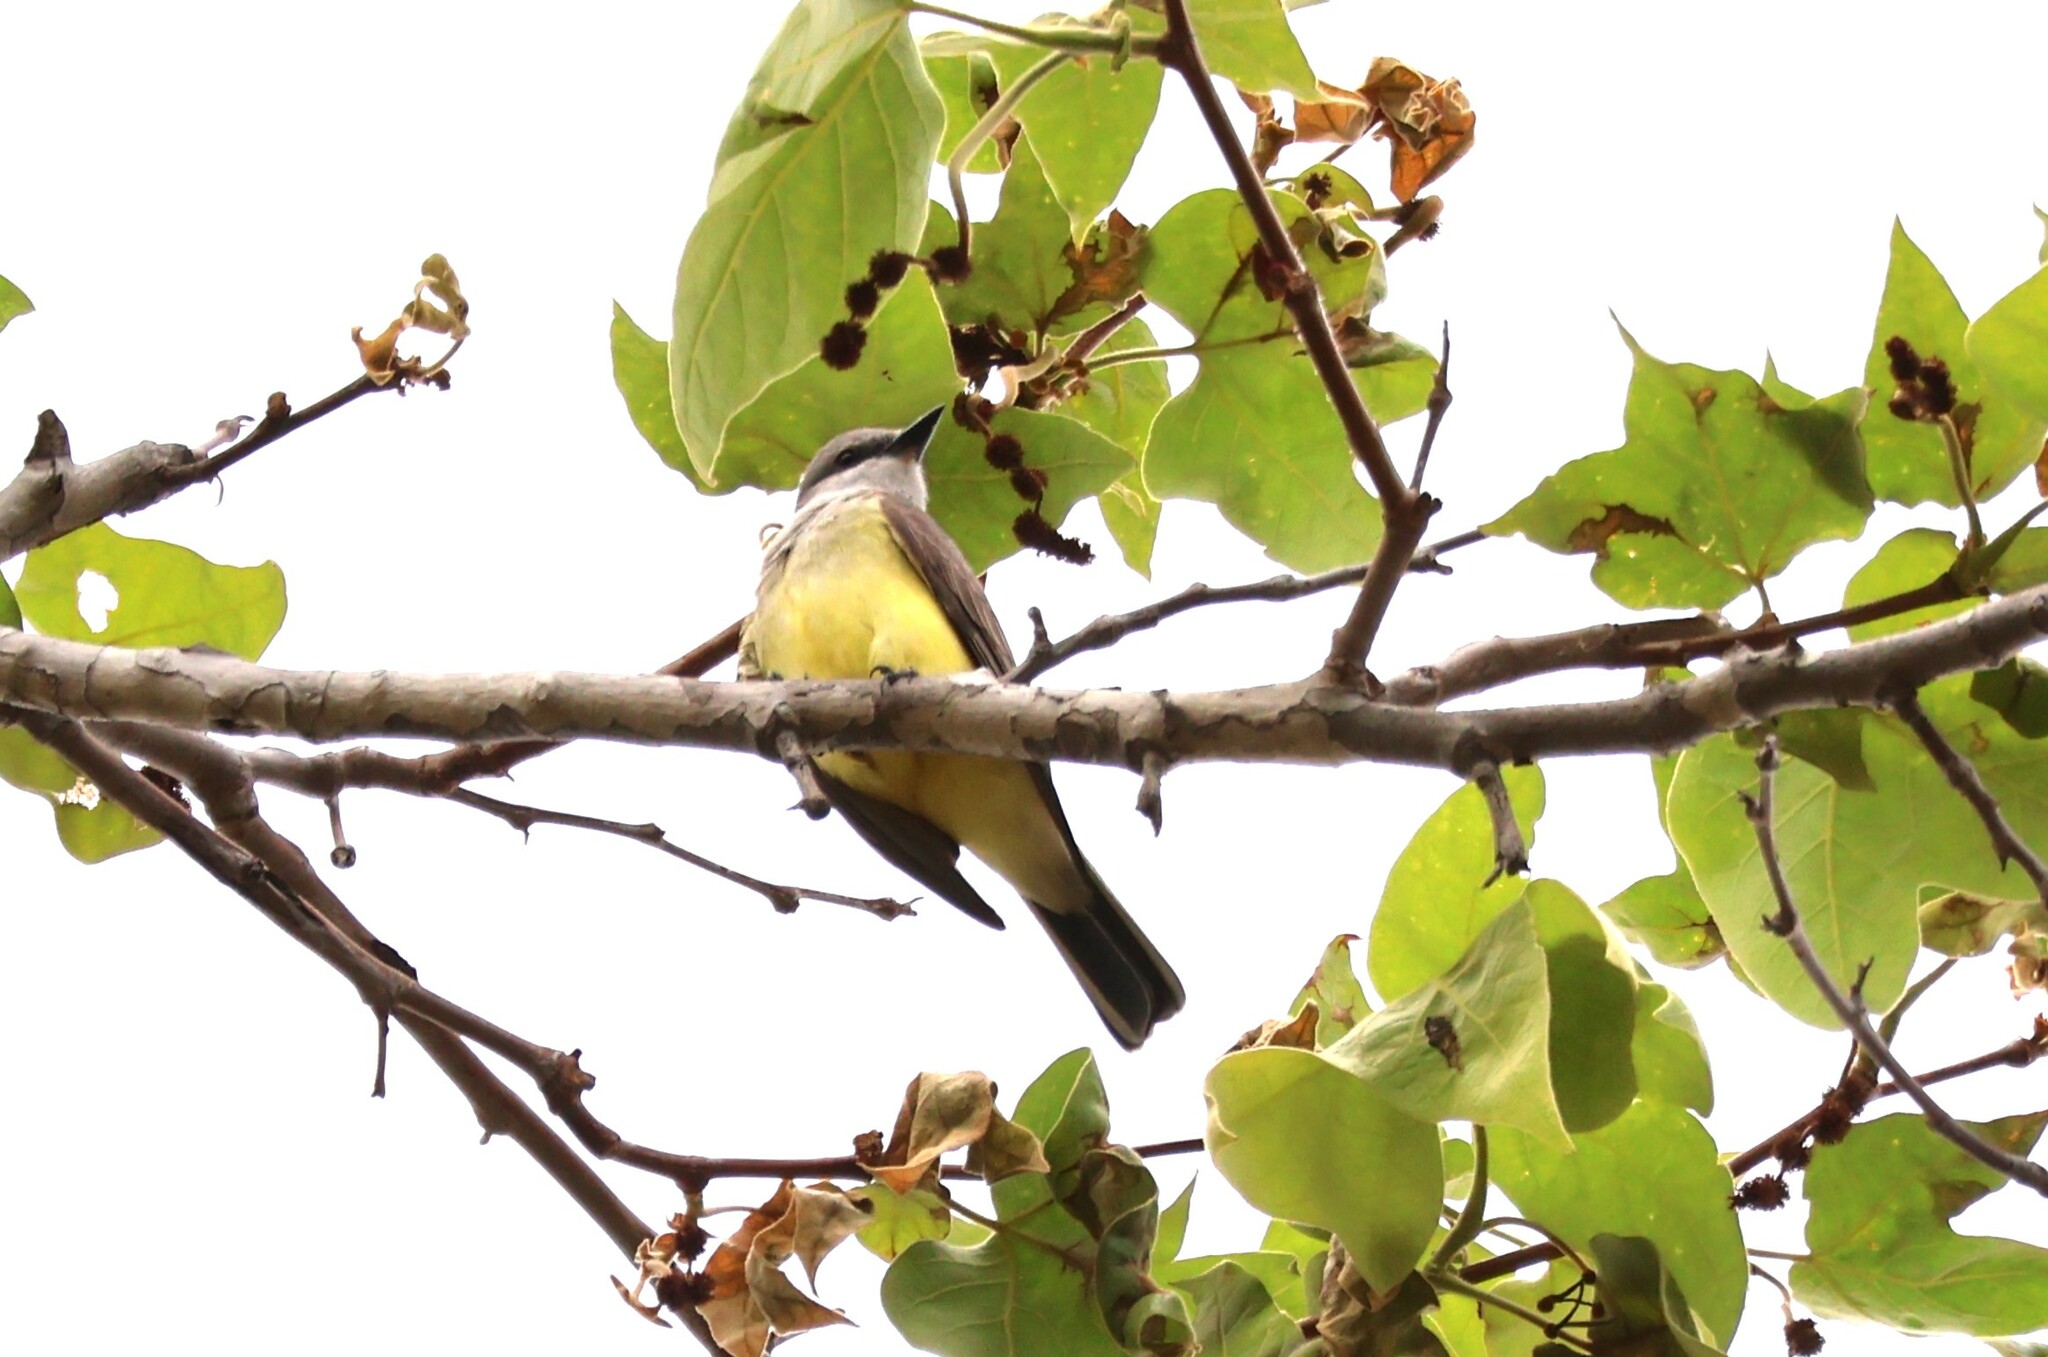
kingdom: Animalia
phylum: Chordata
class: Aves
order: Passeriformes
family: Tyrannidae
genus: Tyrannus
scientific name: Tyrannus verticalis
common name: Western kingbird
